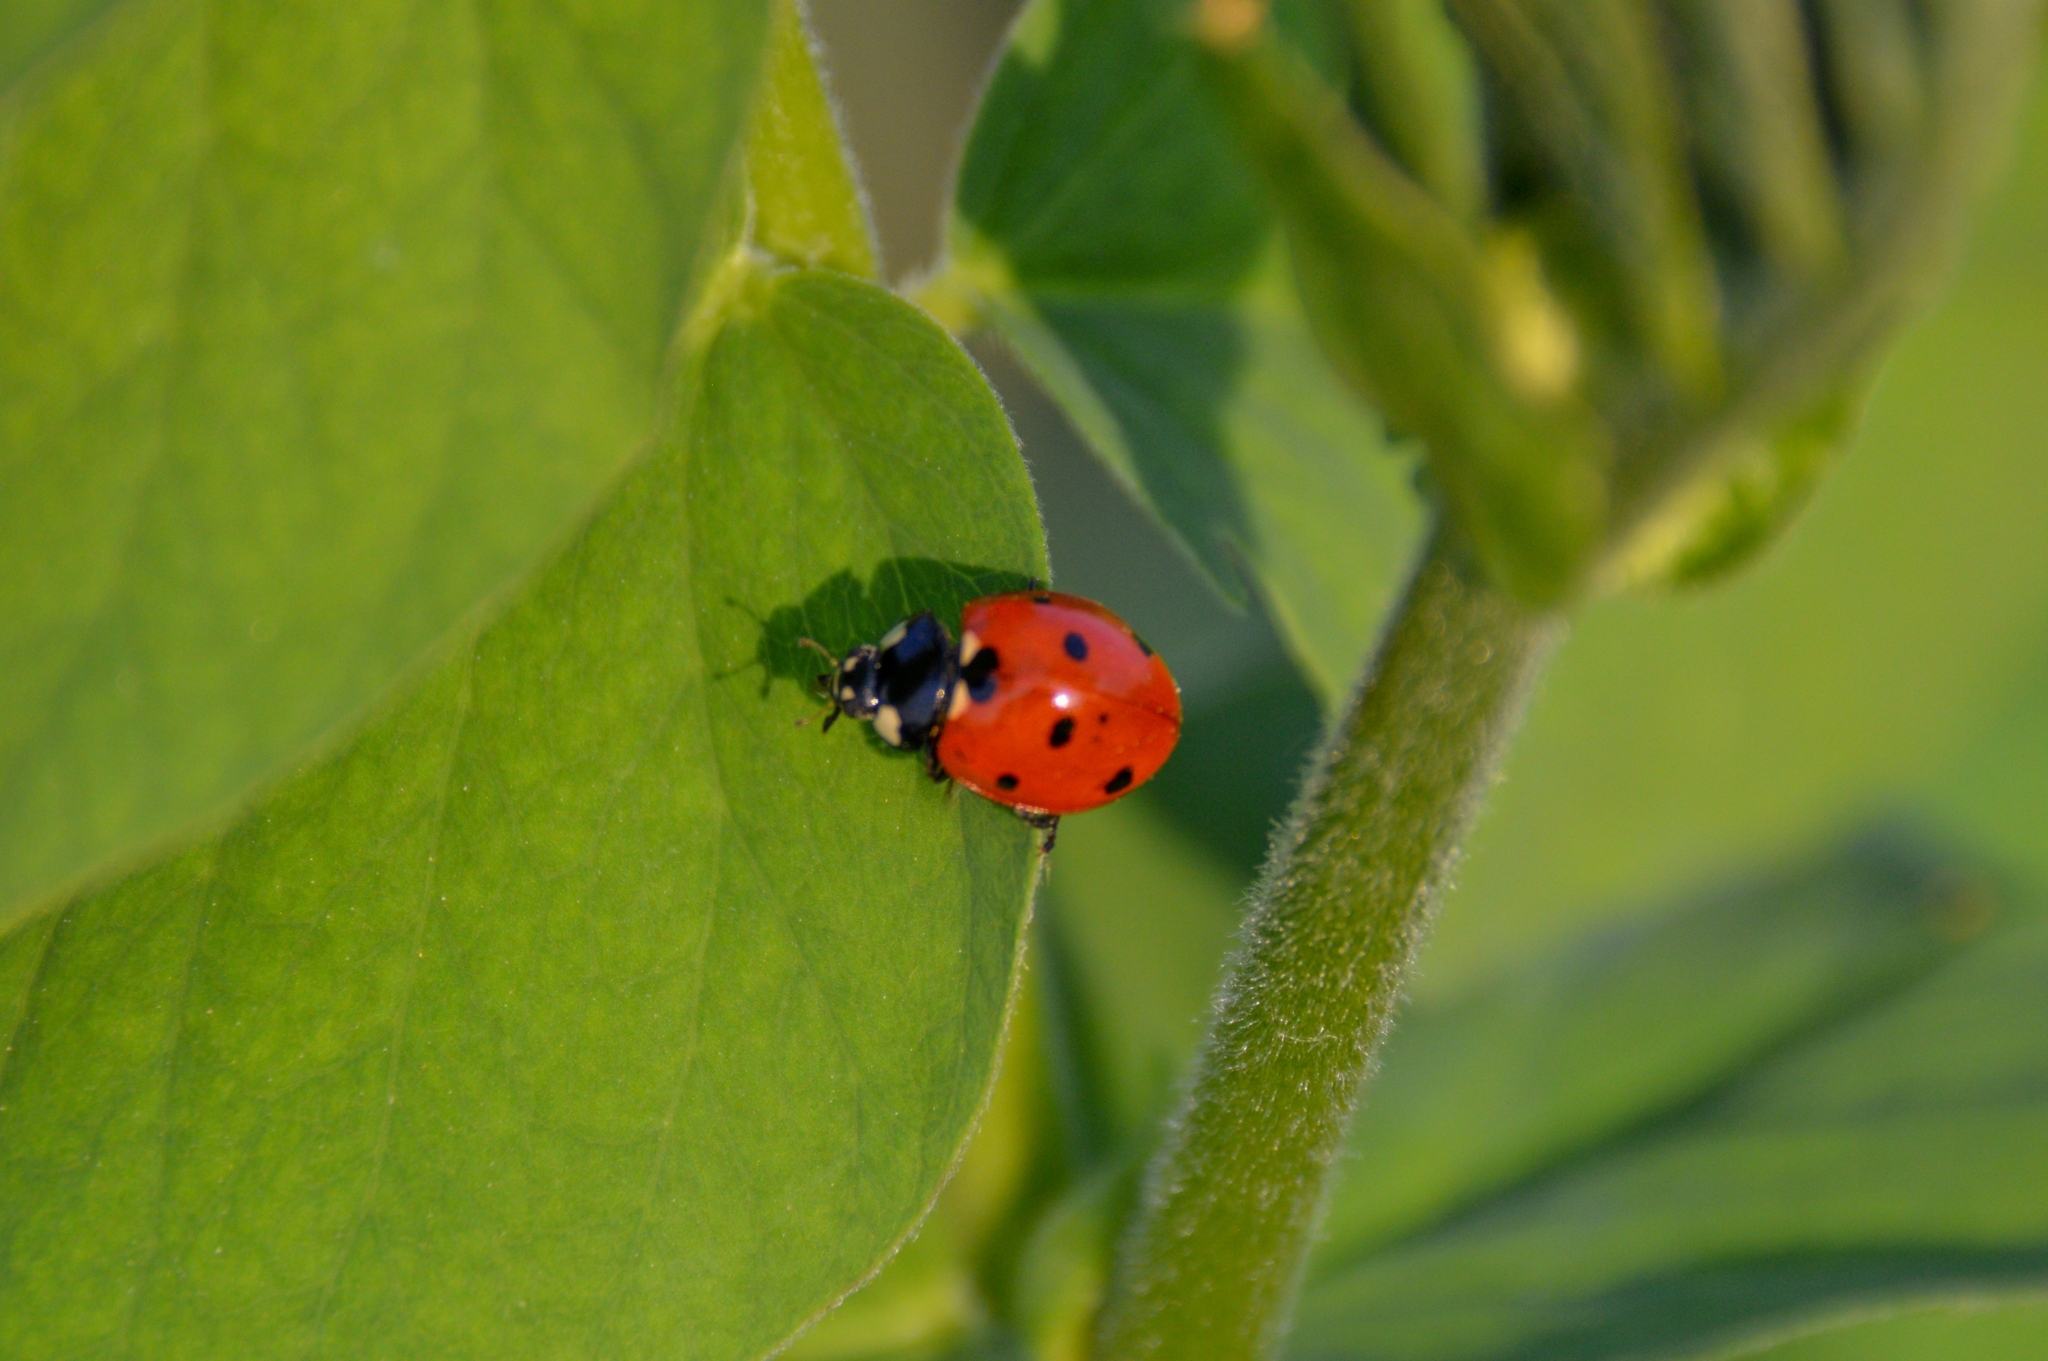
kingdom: Animalia
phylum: Arthropoda
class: Insecta
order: Coleoptera
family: Coccinellidae
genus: Coccinella
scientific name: Coccinella septempunctata
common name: Sevenspotted lady beetle
